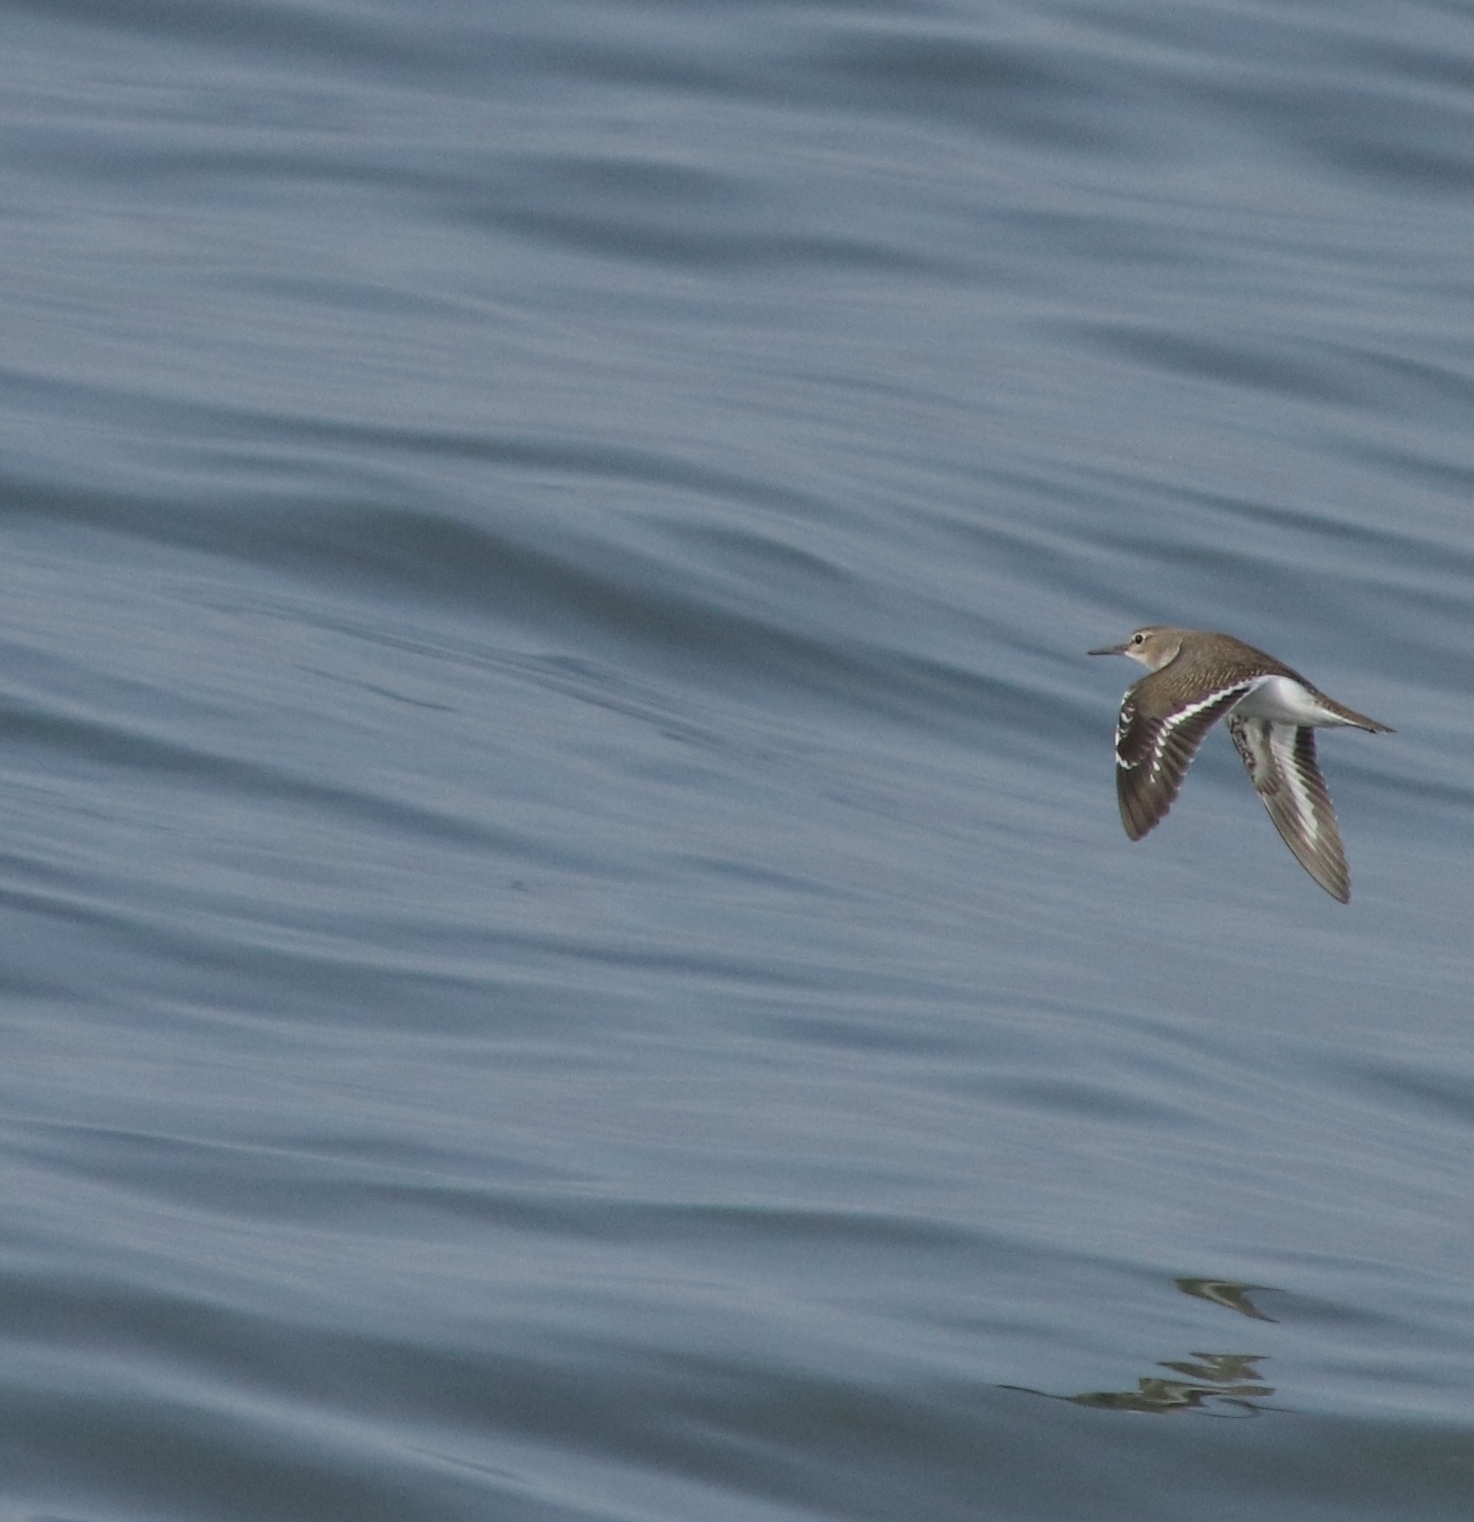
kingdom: Animalia
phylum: Chordata
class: Aves
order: Charadriiformes
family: Scolopacidae
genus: Actitis
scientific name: Actitis hypoleucos
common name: Common sandpiper
